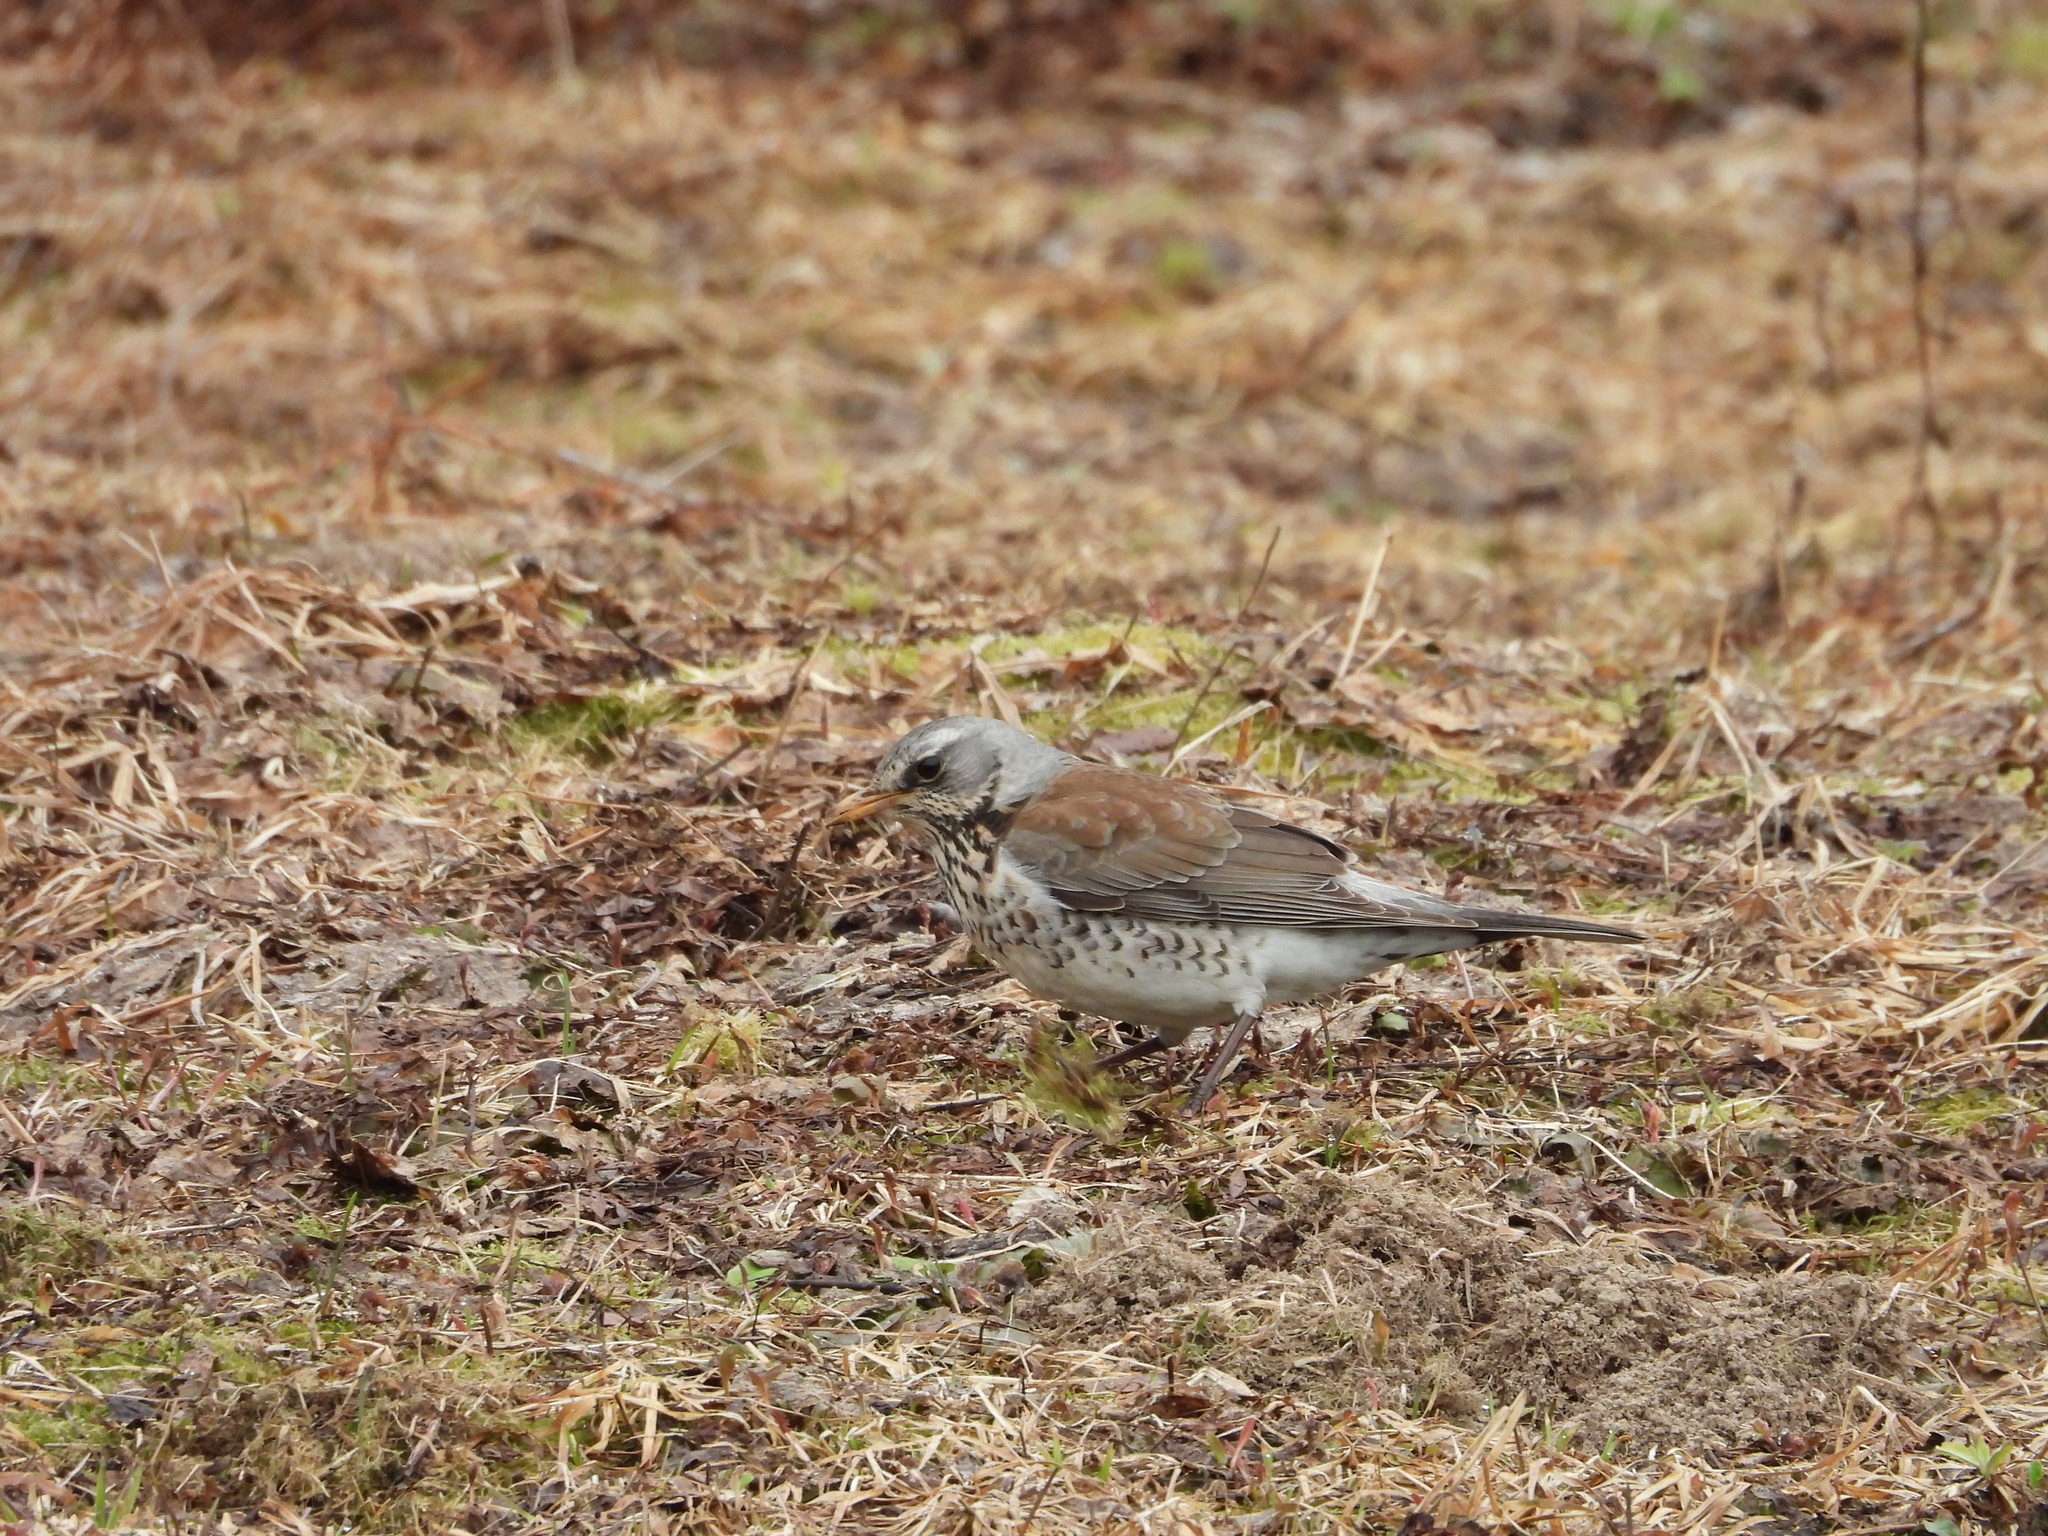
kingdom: Animalia
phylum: Chordata
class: Aves
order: Passeriformes
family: Turdidae
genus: Turdus
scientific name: Turdus pilaris
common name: Fieldfare
